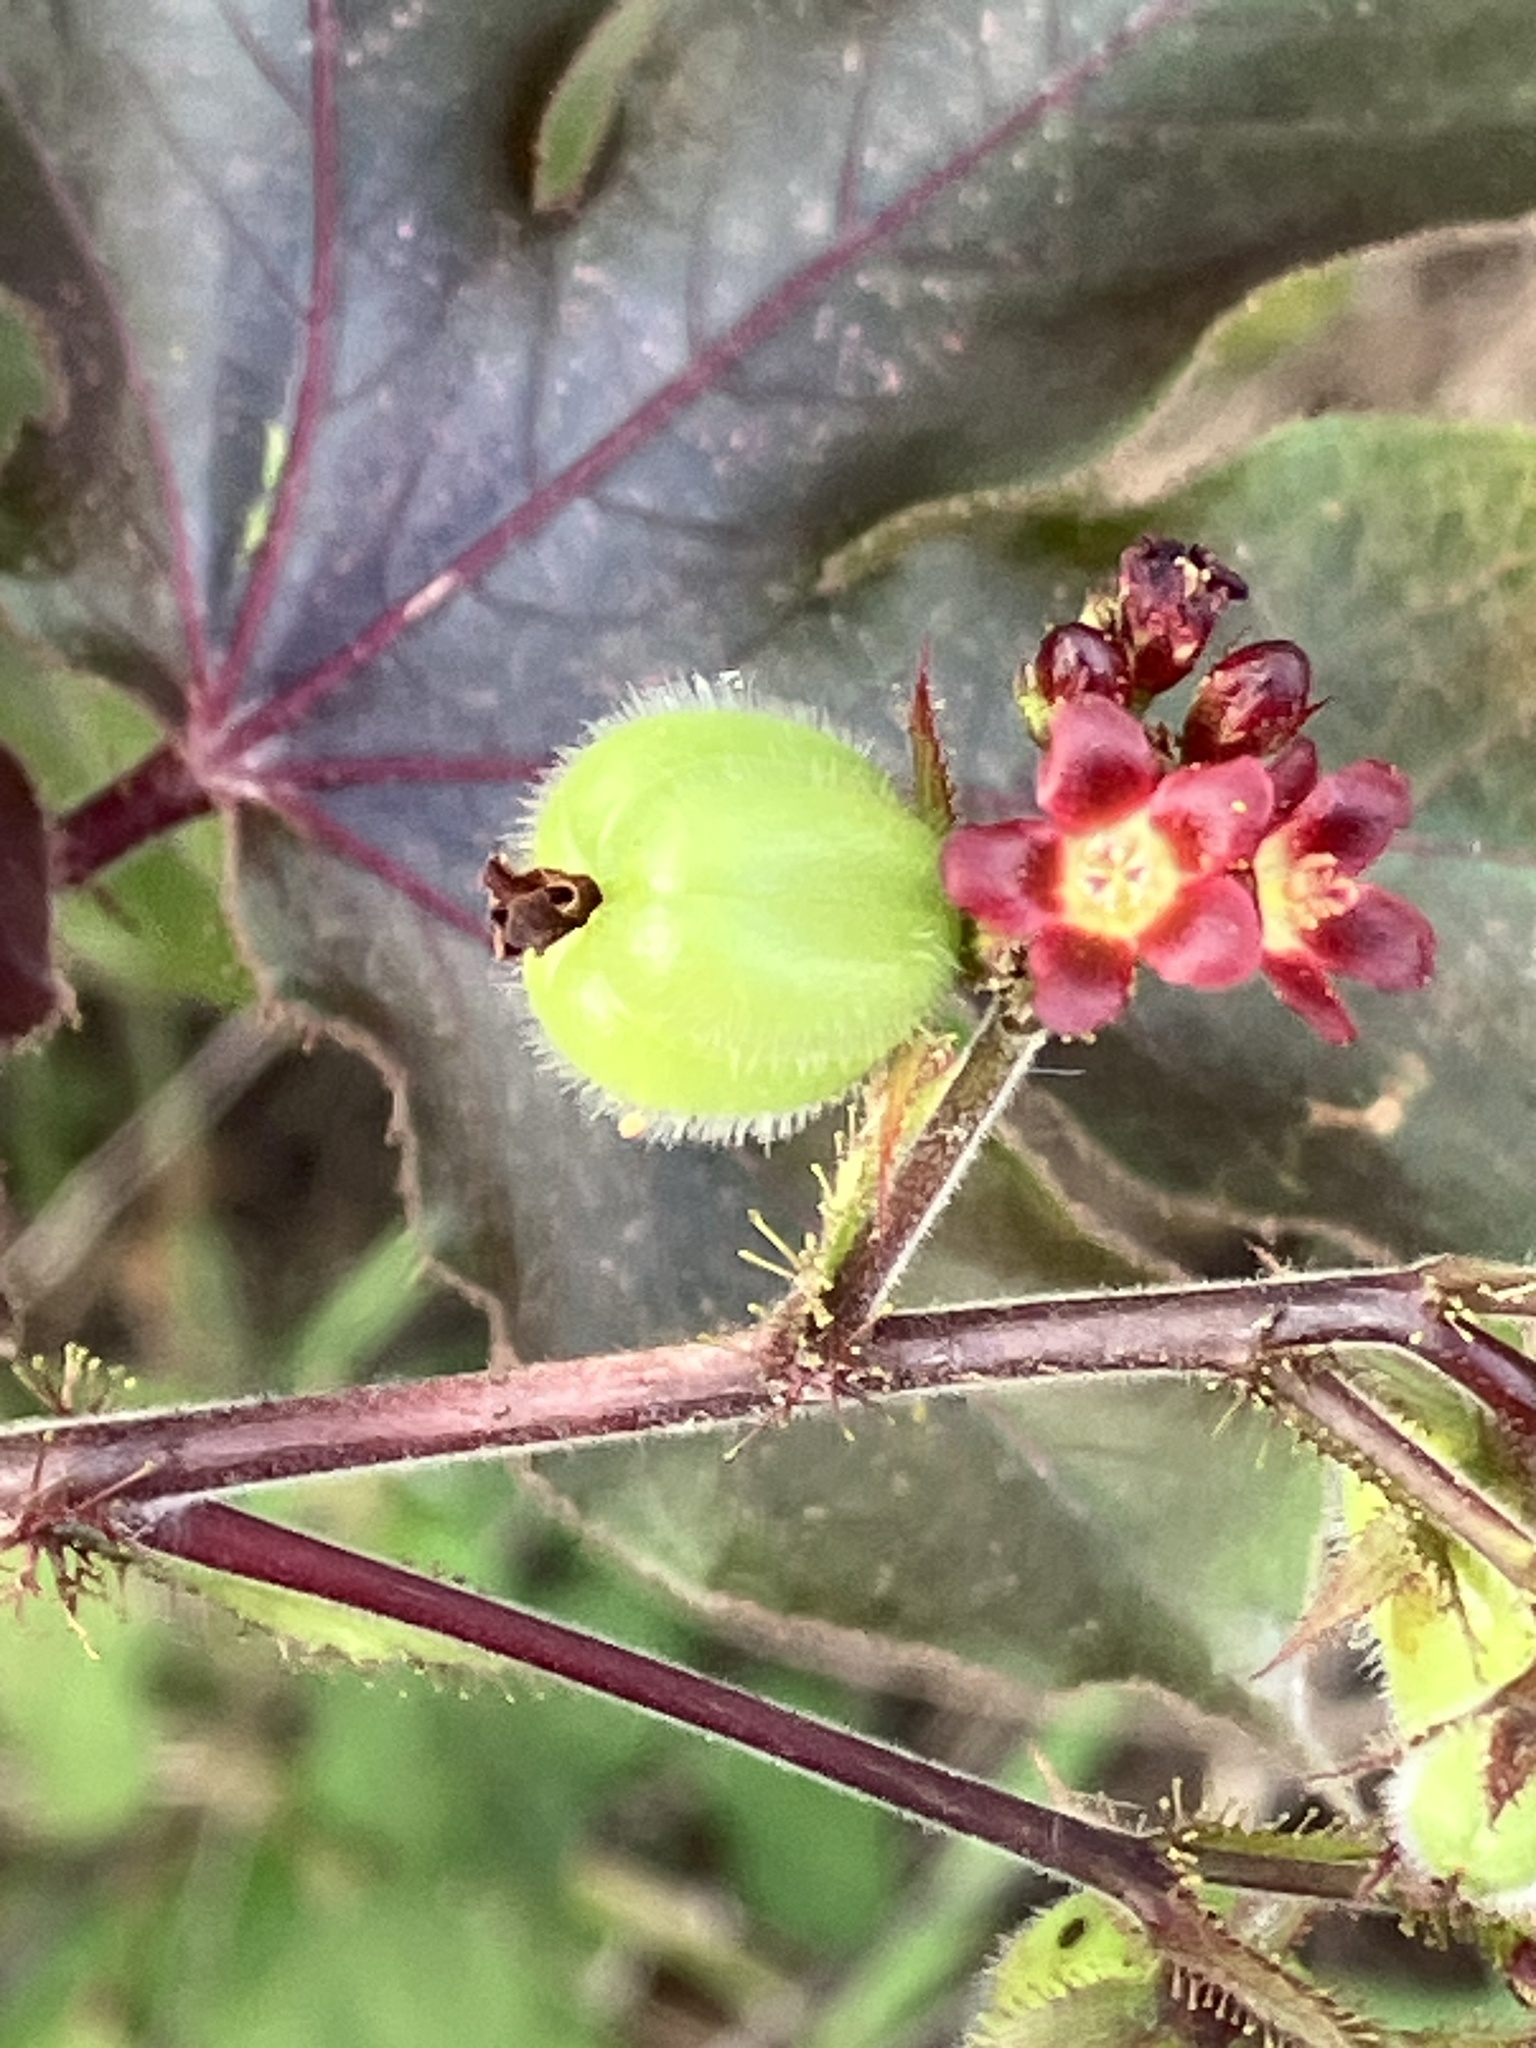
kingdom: Plantae
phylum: Tracheophyta
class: Magnoliopsida
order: Malpighiales
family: Euphorbiaceae
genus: Jatropha
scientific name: Jatropha gossypiifolia
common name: Bellyache bush
